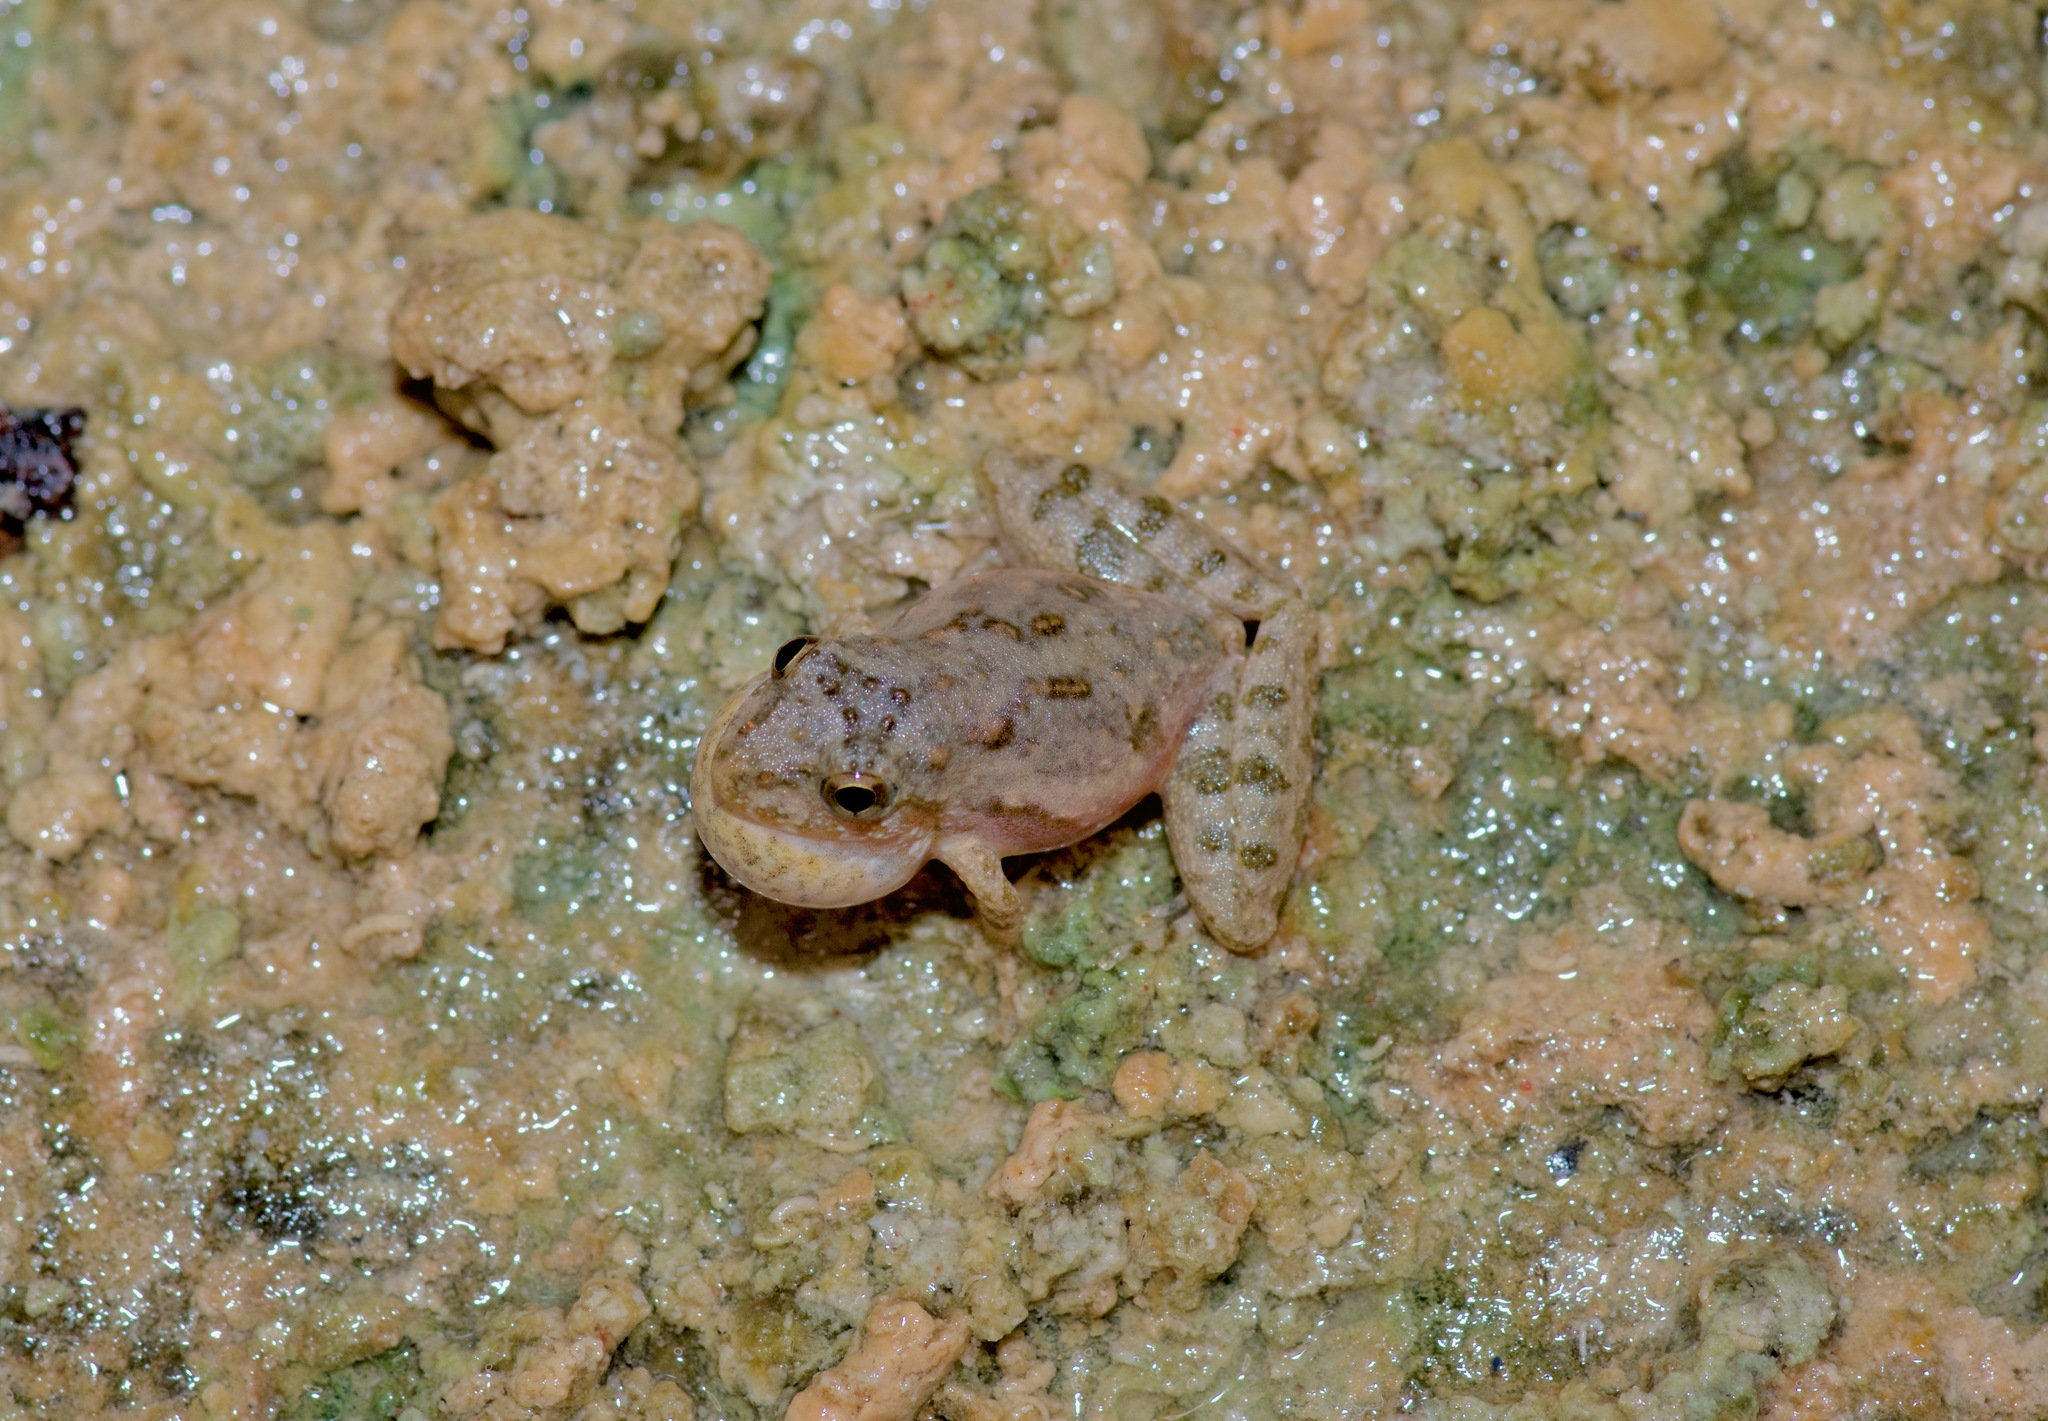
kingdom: Animalia
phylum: Chordata
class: Amphibia
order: Anura
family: Hylidae
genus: Acris
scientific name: Acris blanchardi
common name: Blanchard's cricket frog
